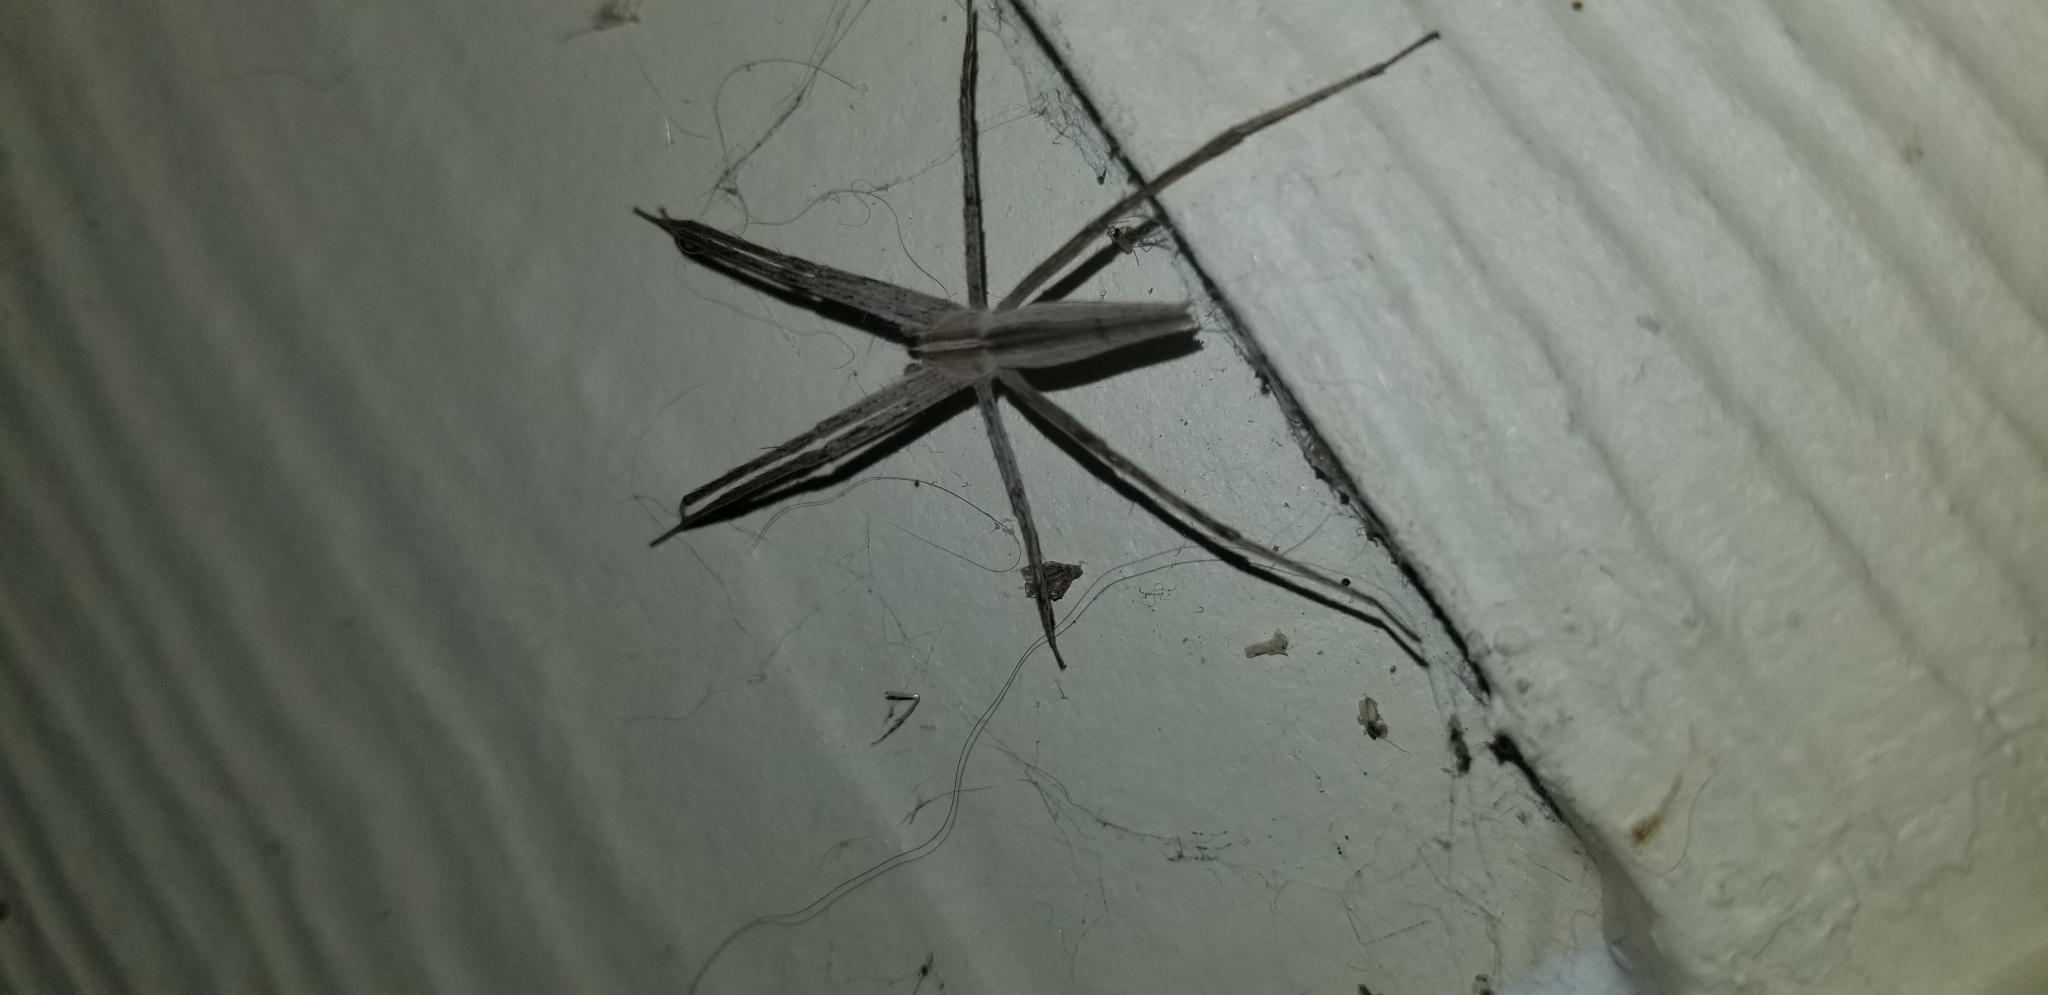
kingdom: Animalia
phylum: Arthropoda
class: Arachnida
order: Araneae
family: Pisauridae
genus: Pisaurina
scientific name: Pisaurina dubia
